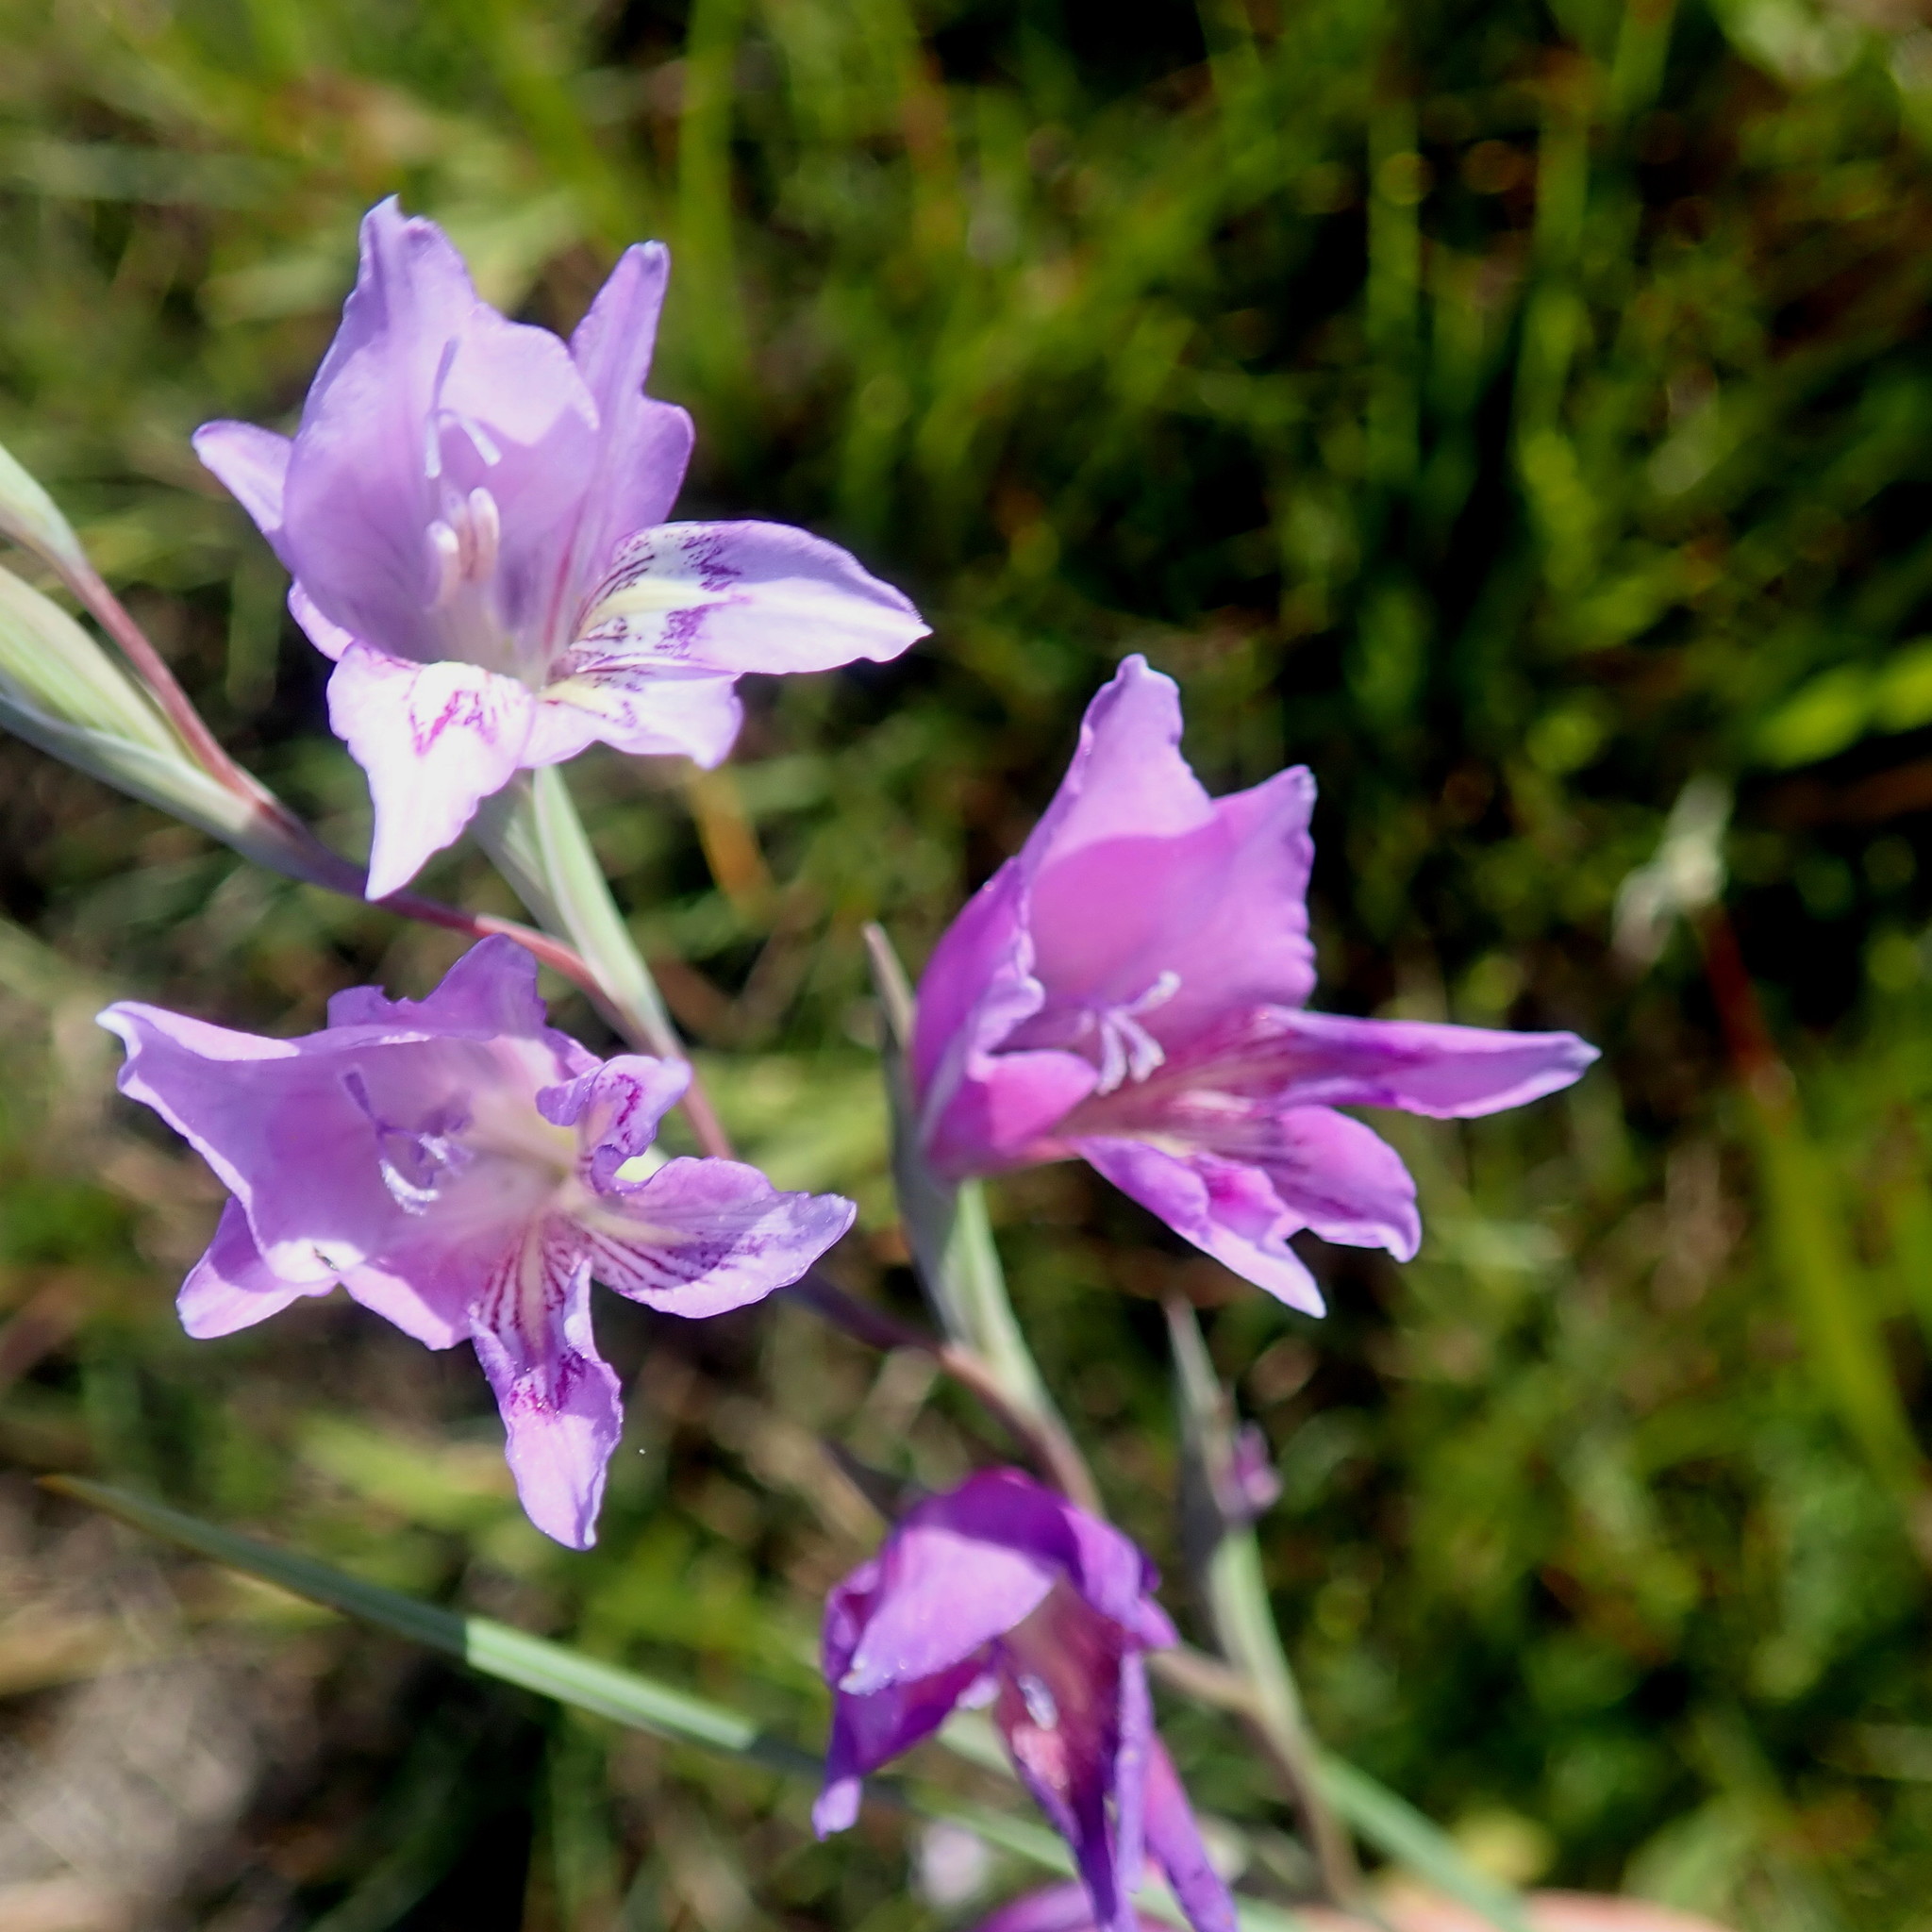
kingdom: Plantae
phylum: Tracheophyta
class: Liliopsida
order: Asparagales
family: Iridaceae
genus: Gladiolus
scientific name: Gladiolus rogersii
